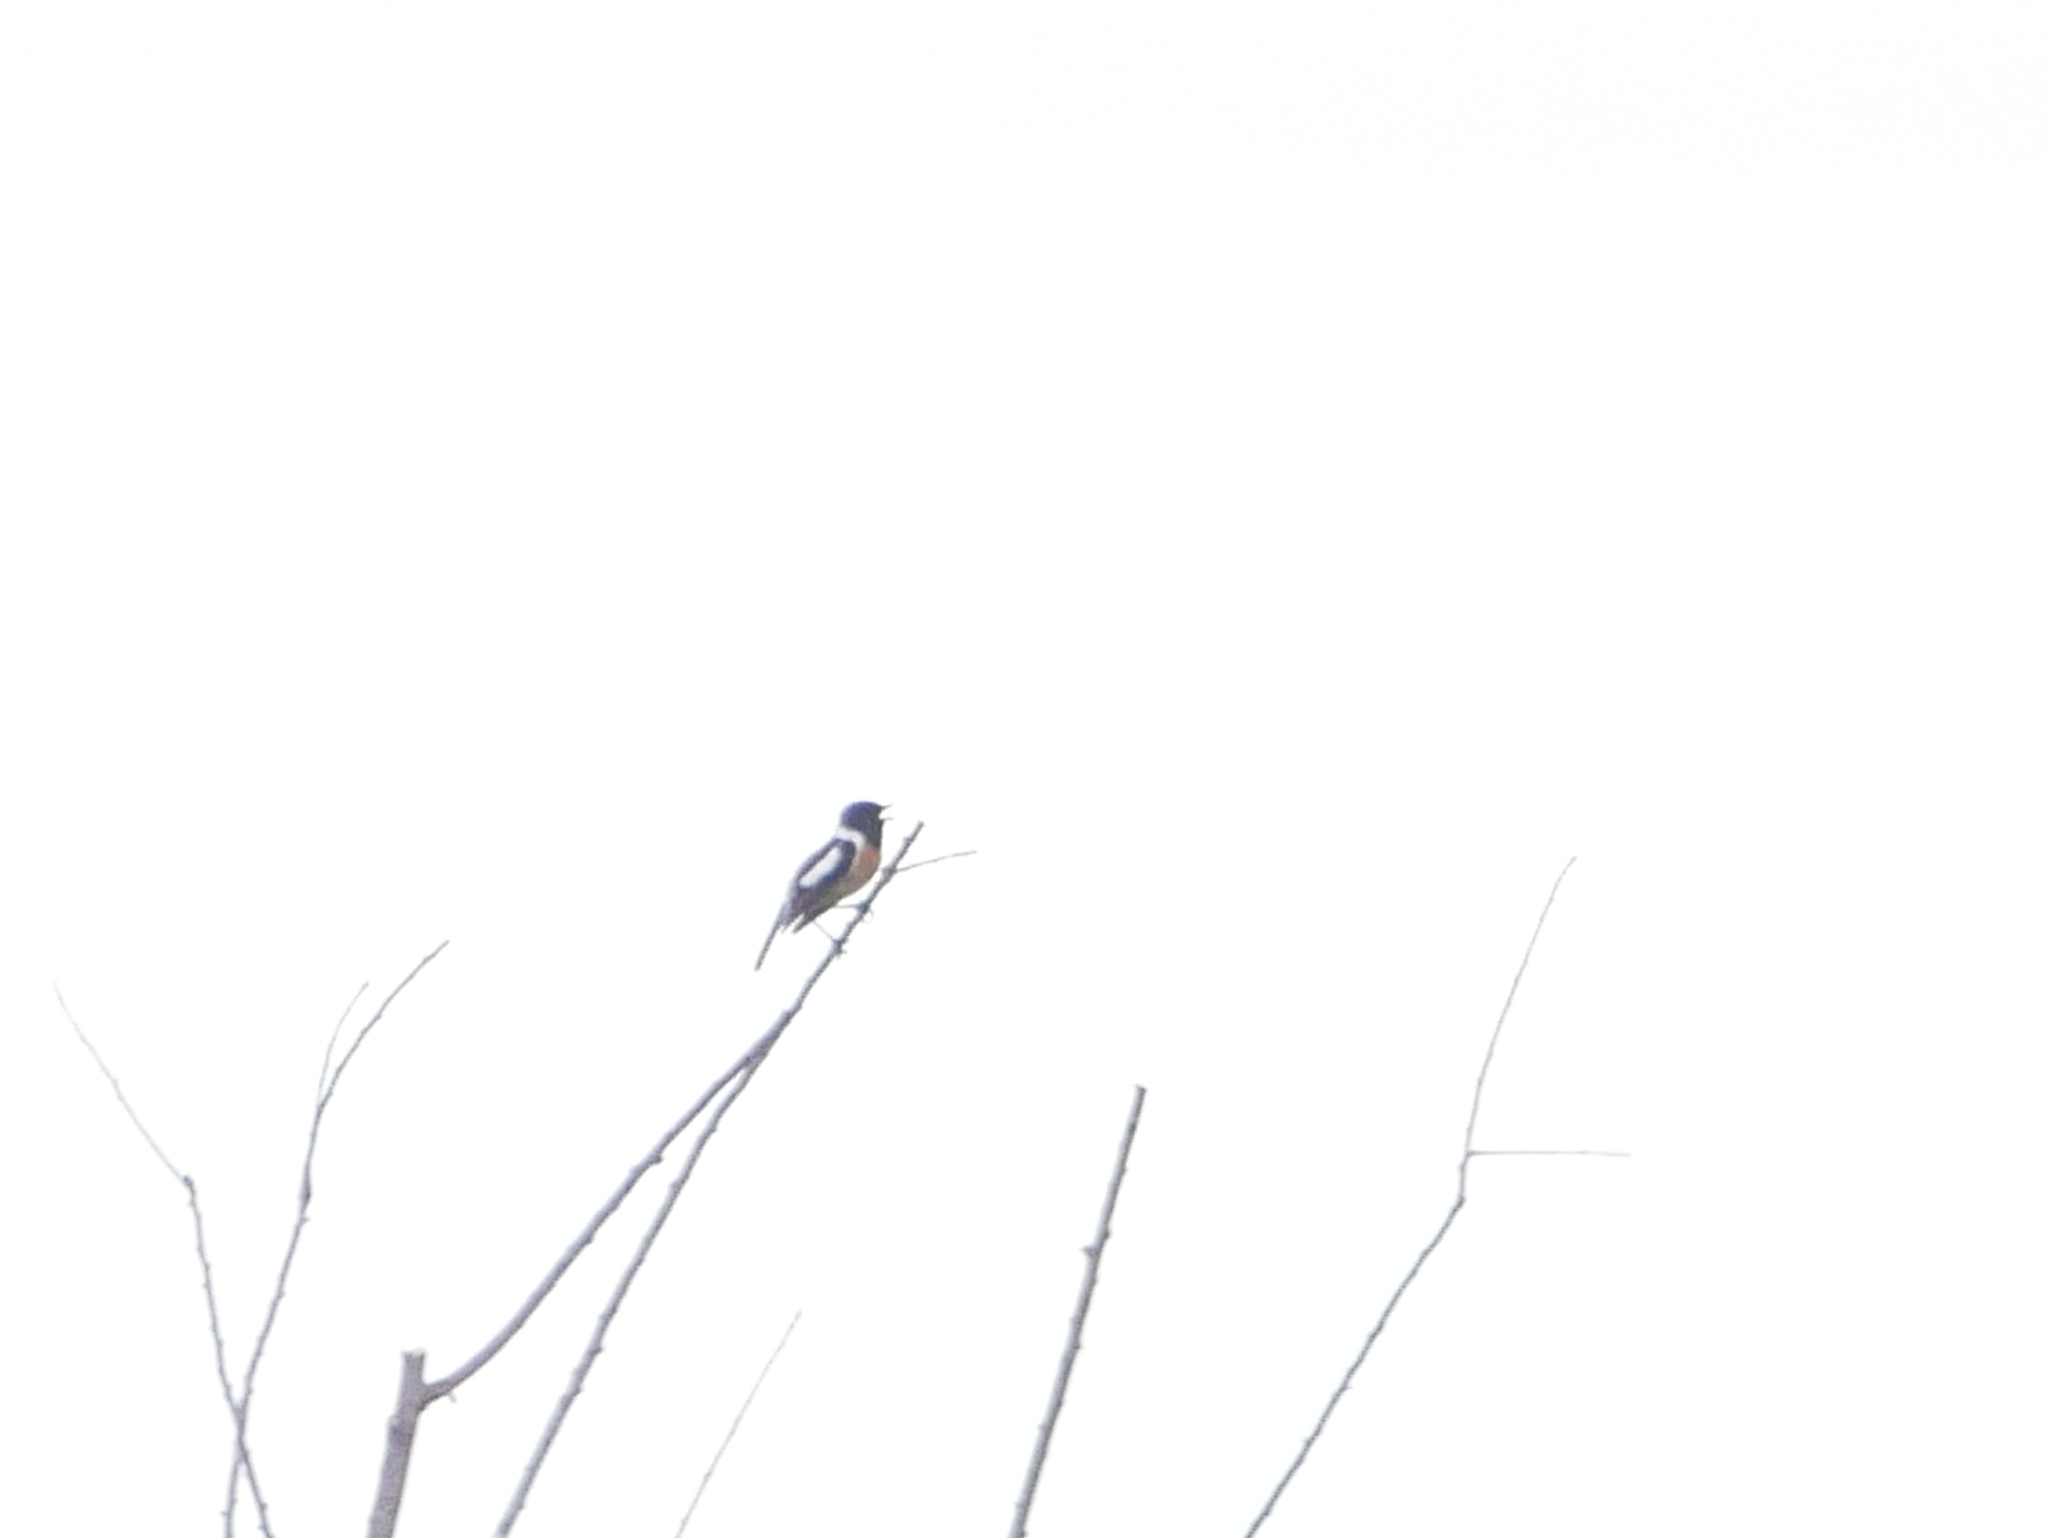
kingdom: Animalia
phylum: Chordata
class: Aves
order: Passeriformes
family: Muscicapidae
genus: Saxicola
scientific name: Saxicola rubicola
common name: European stonechat
